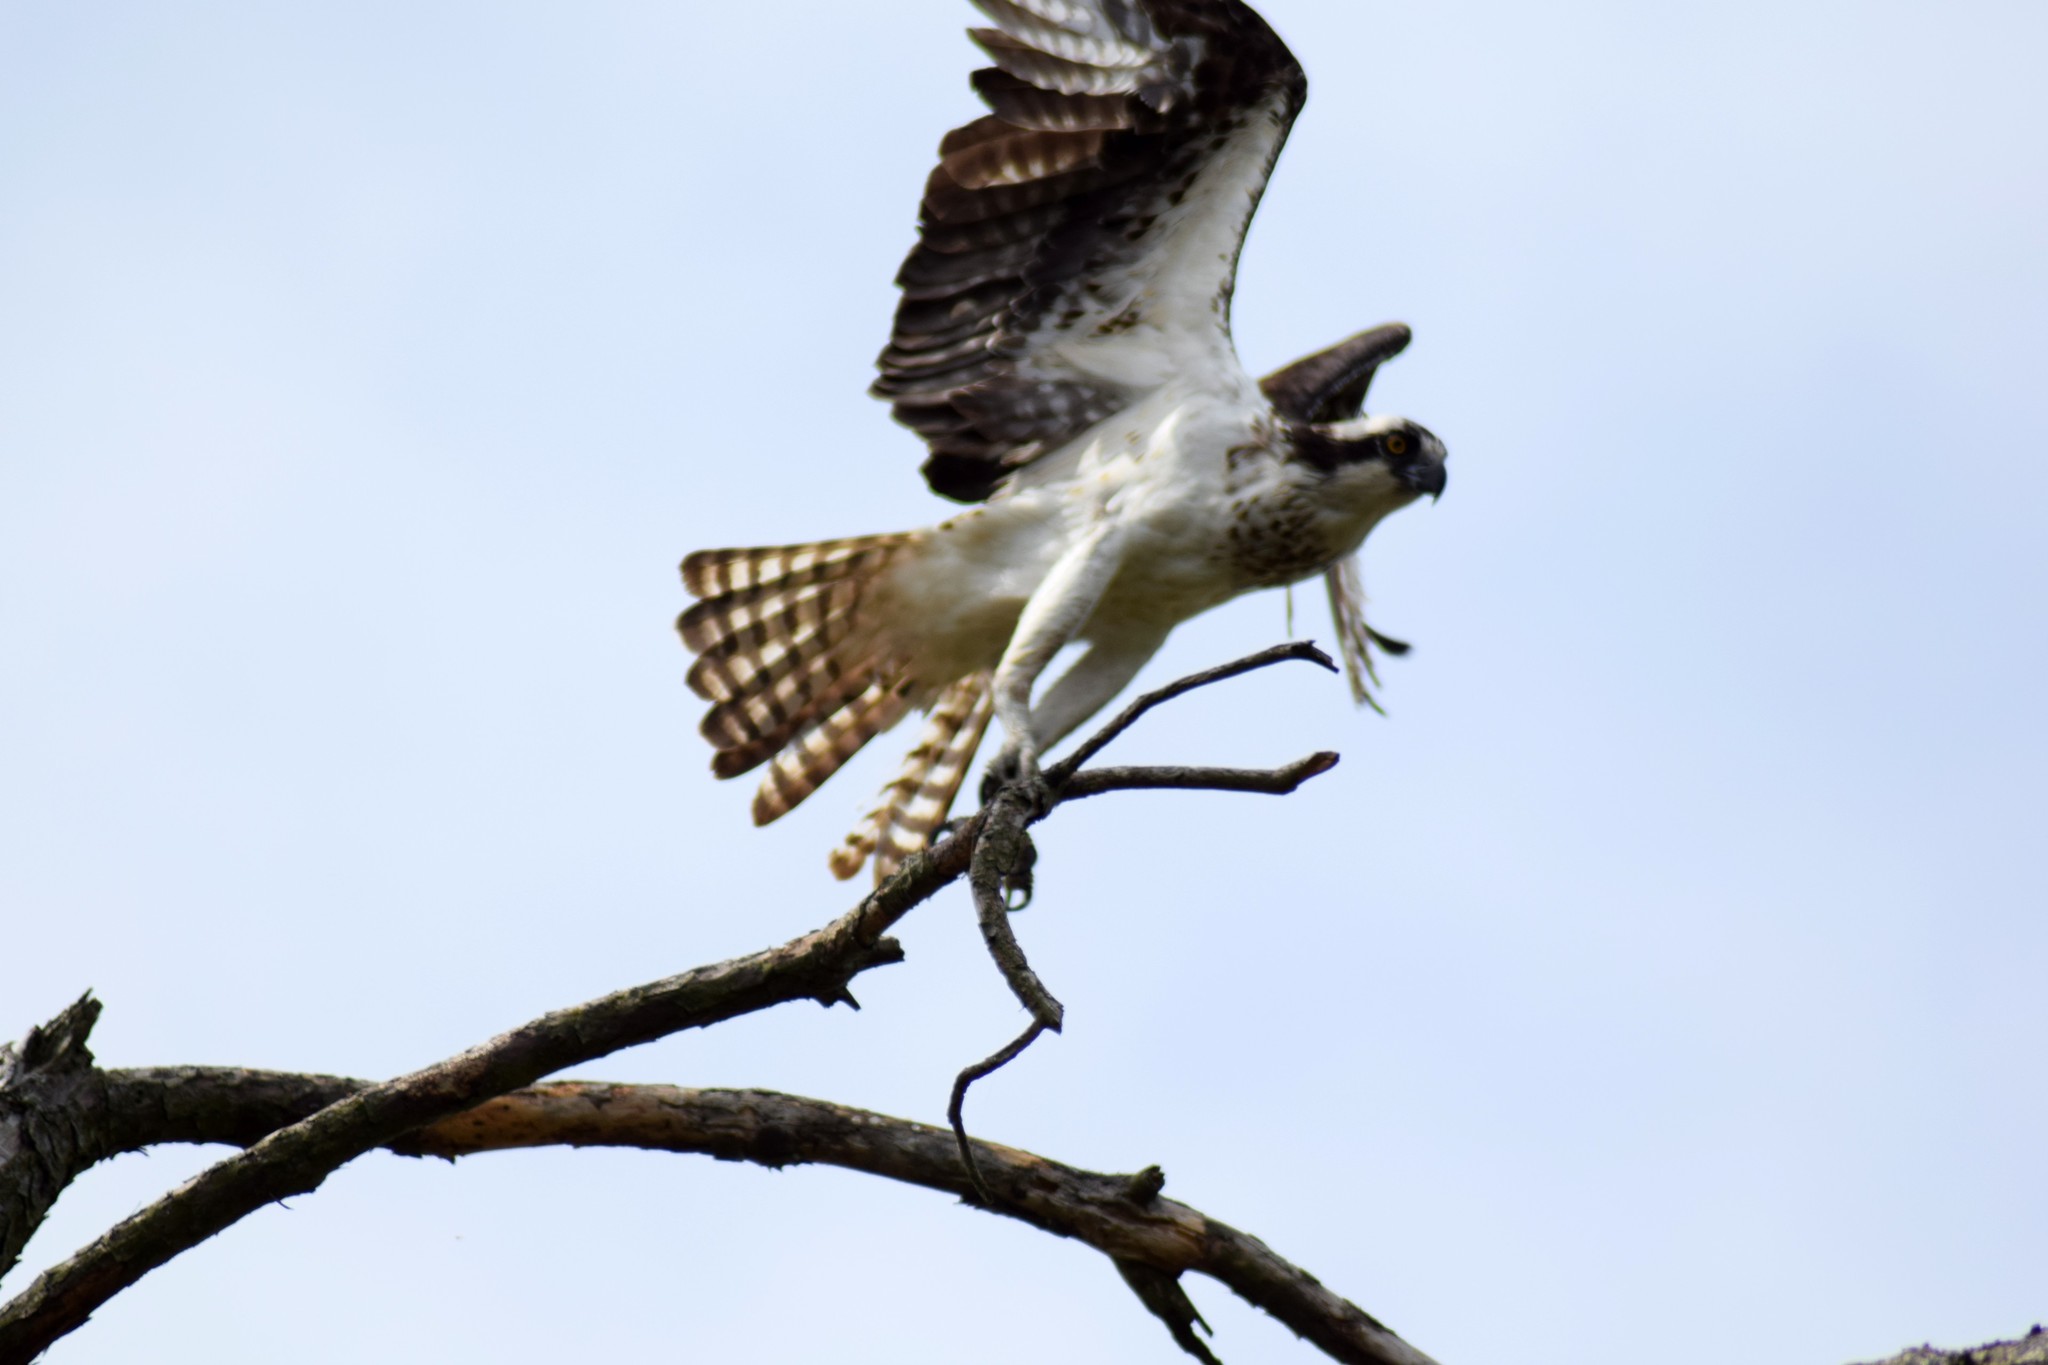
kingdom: Animalia
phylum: Chordata
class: Aves
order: Accipitriformes
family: Pandionidae
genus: Pandion
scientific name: Pandion haliaetus
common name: Osprey
